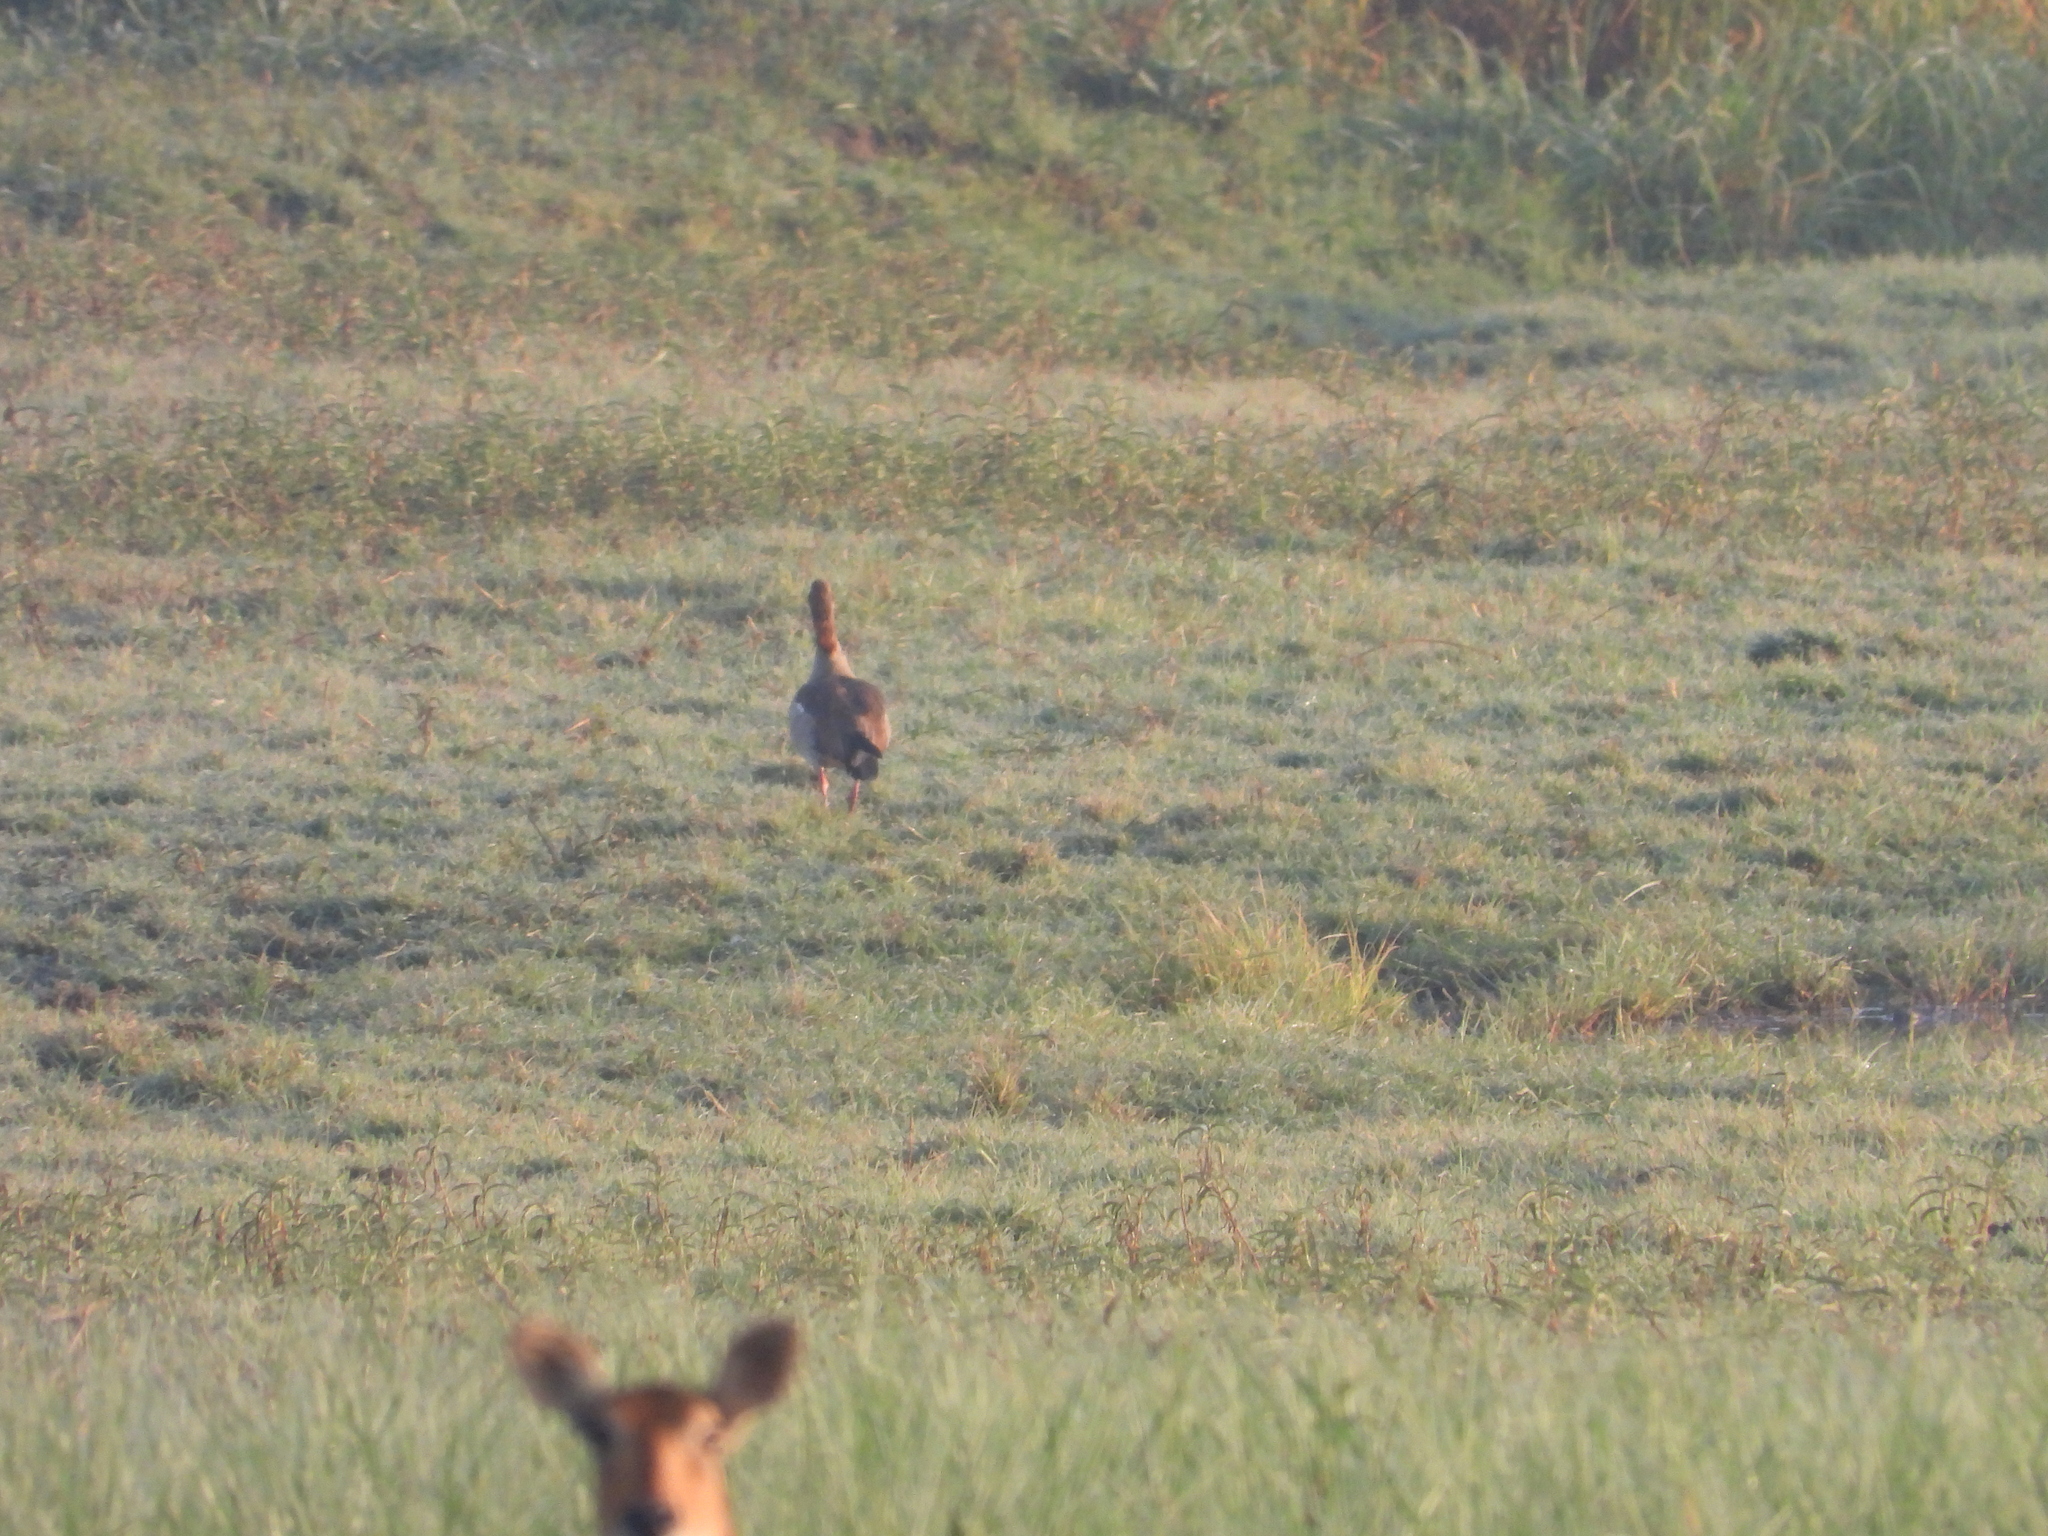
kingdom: Animalia
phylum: Chordata
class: Aves
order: Anseriformes
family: Anatidae
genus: Alopochen
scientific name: Alopochen aegyptiaca
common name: Egyptian goose
